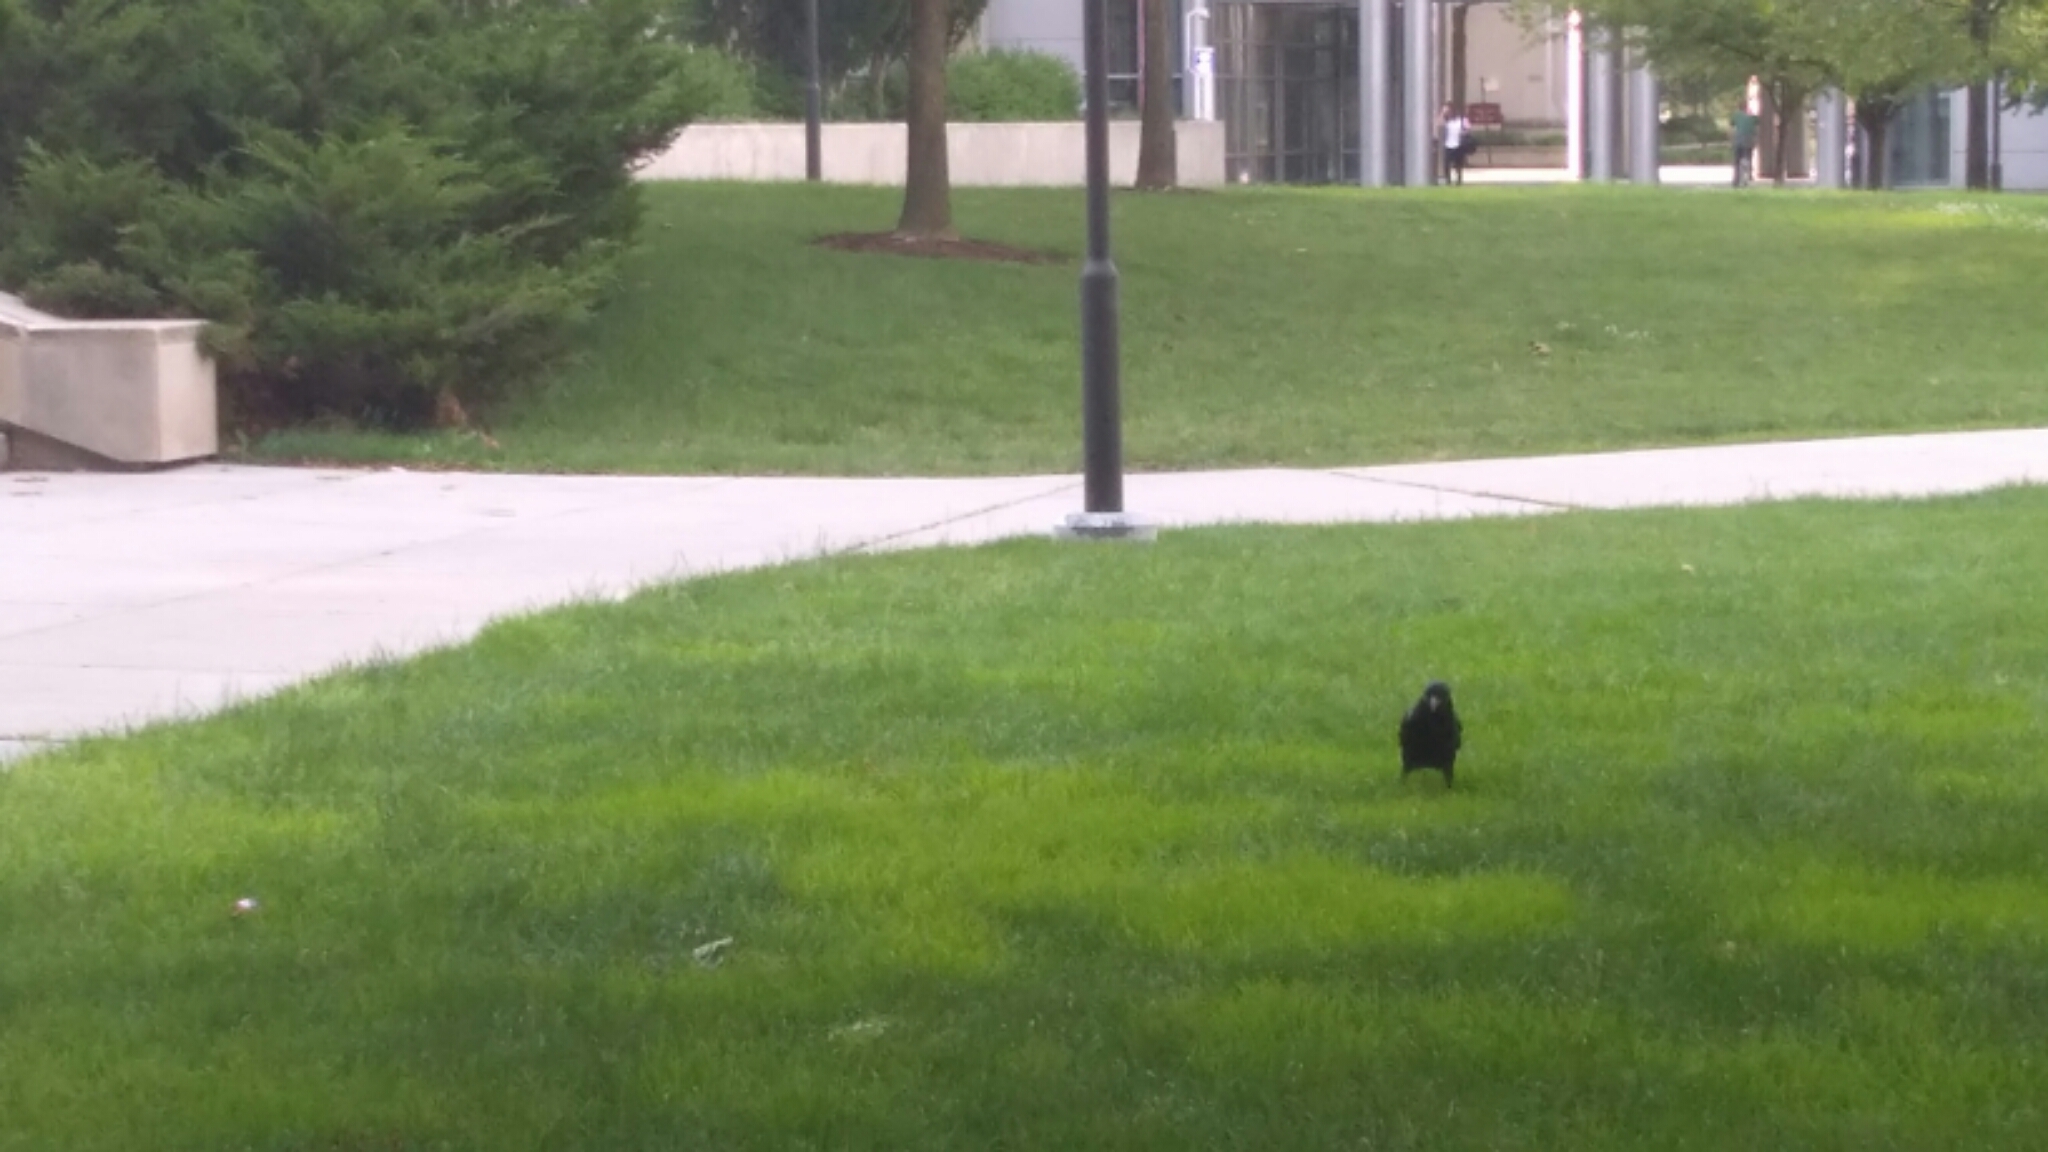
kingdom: Animalia
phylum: Chordata
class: Aves
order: Passeriformes
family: Corvidae
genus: Corvus
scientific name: Corvus brachyrhynchos
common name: American crow
